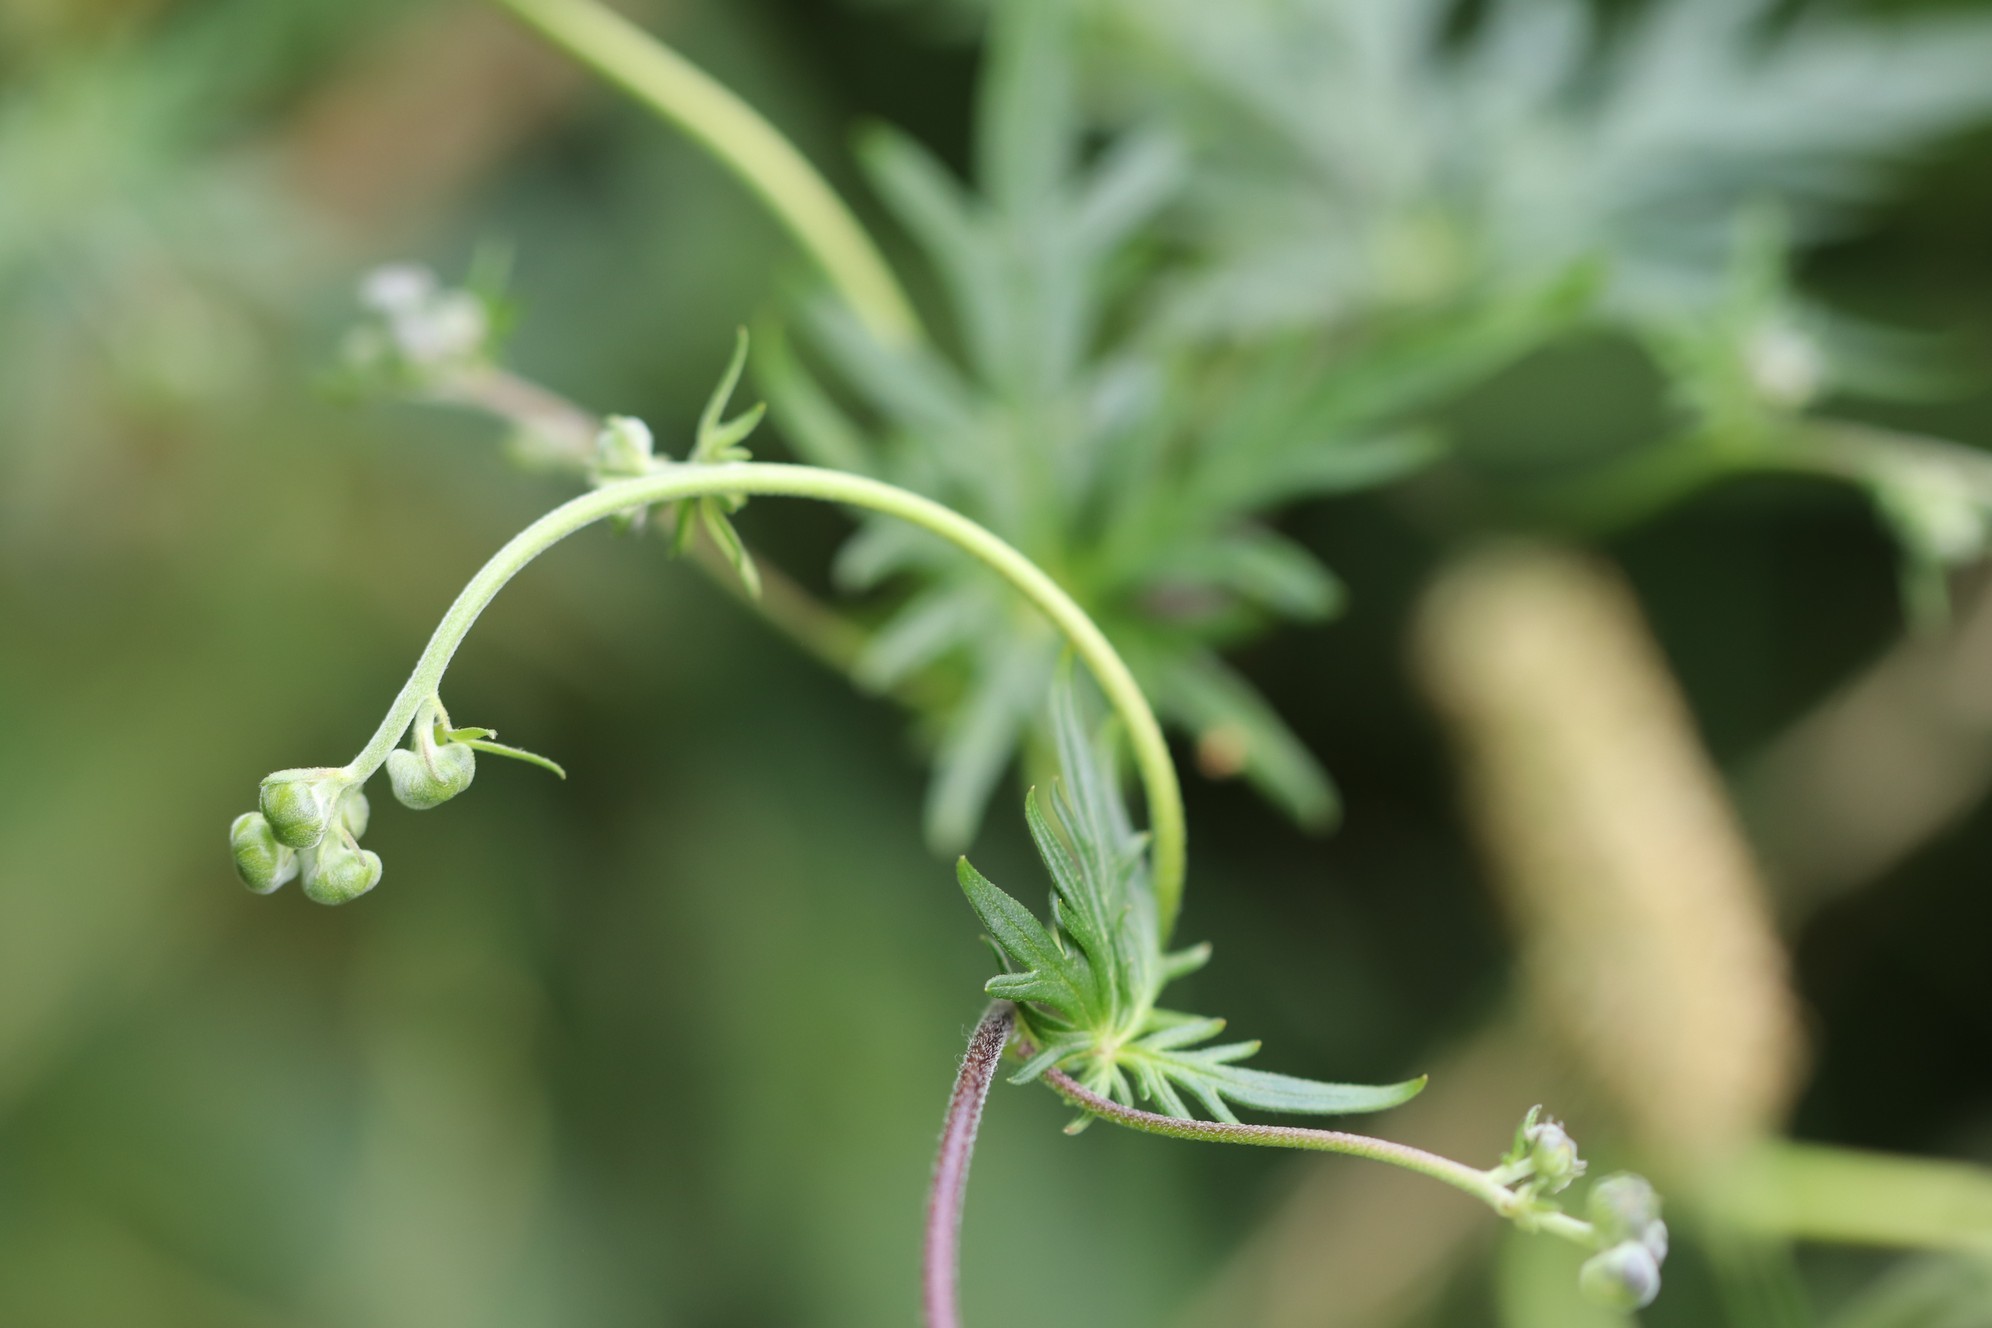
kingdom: Plantae
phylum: Tracheophyta
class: Magnoliopsida
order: Ranunculales
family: Ranunculaceae
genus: Aconitum
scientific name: Aconitum volubile
